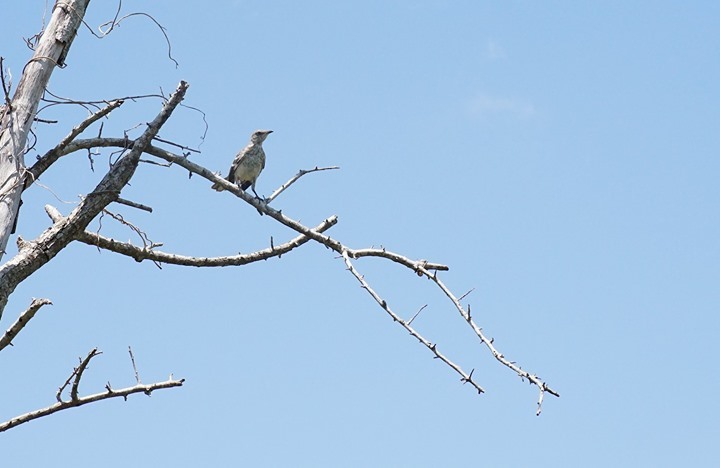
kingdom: Animalia
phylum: Chordata
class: Aves
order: Passeriformes
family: Mimidae
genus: Mimus
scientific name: Mimus polyglottos
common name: Northern mockingbird
